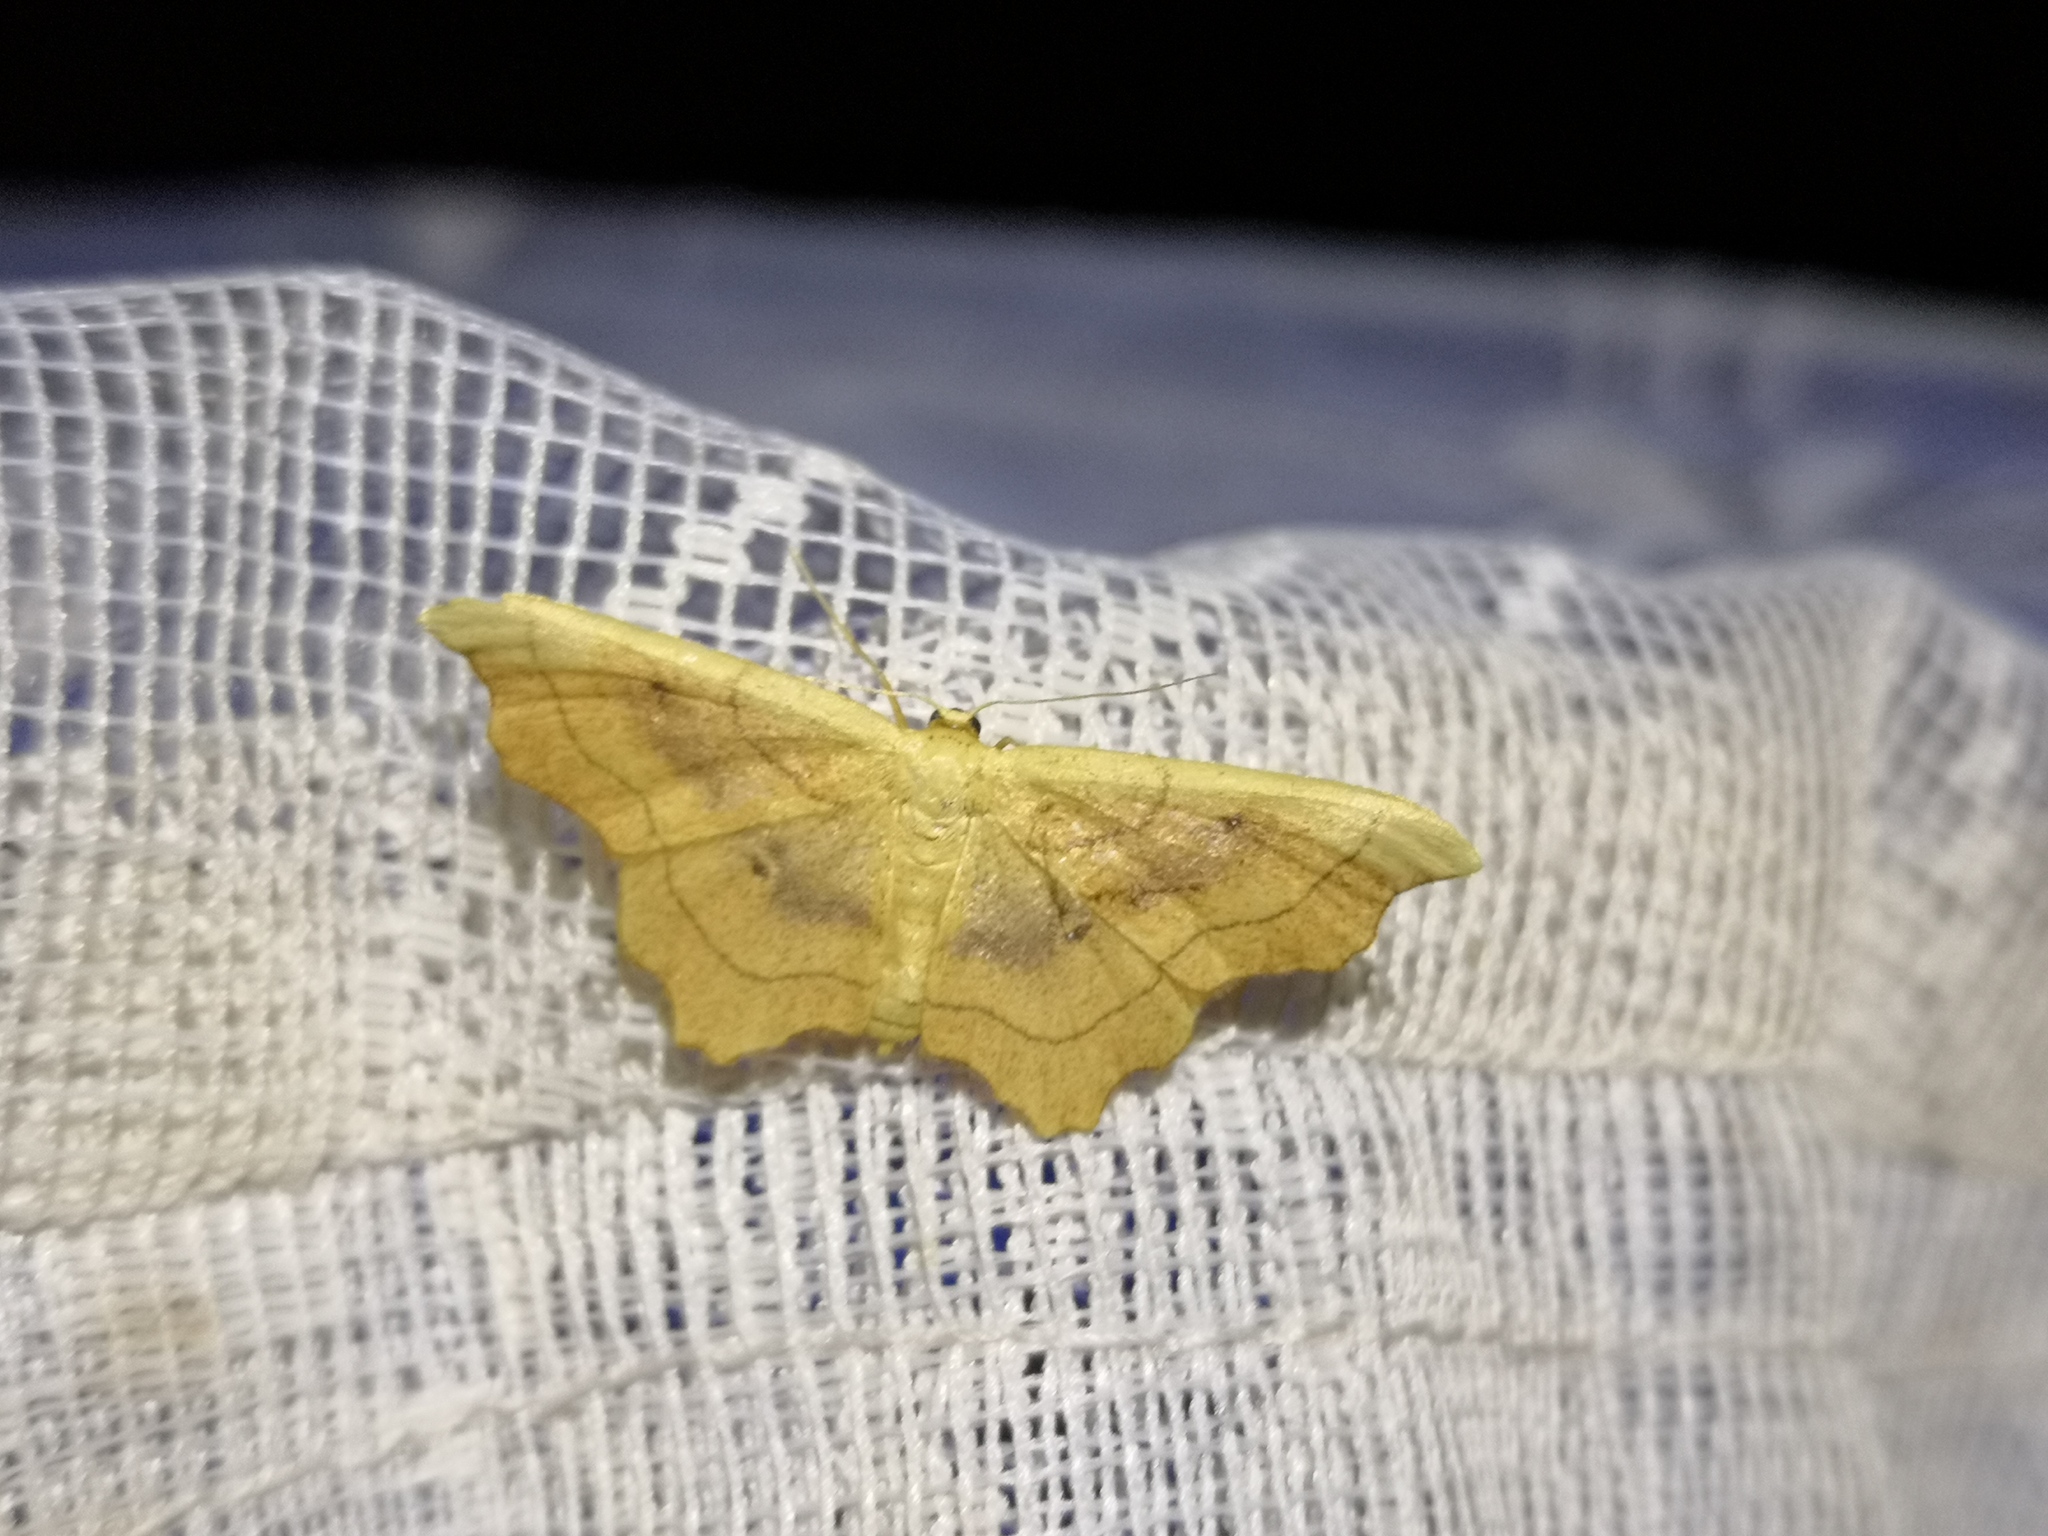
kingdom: Animalia
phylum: Arthropoda
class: Insecta
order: Lepidoptera
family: Geometridae
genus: Idaea
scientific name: Idaea emarginata
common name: Small scallop
